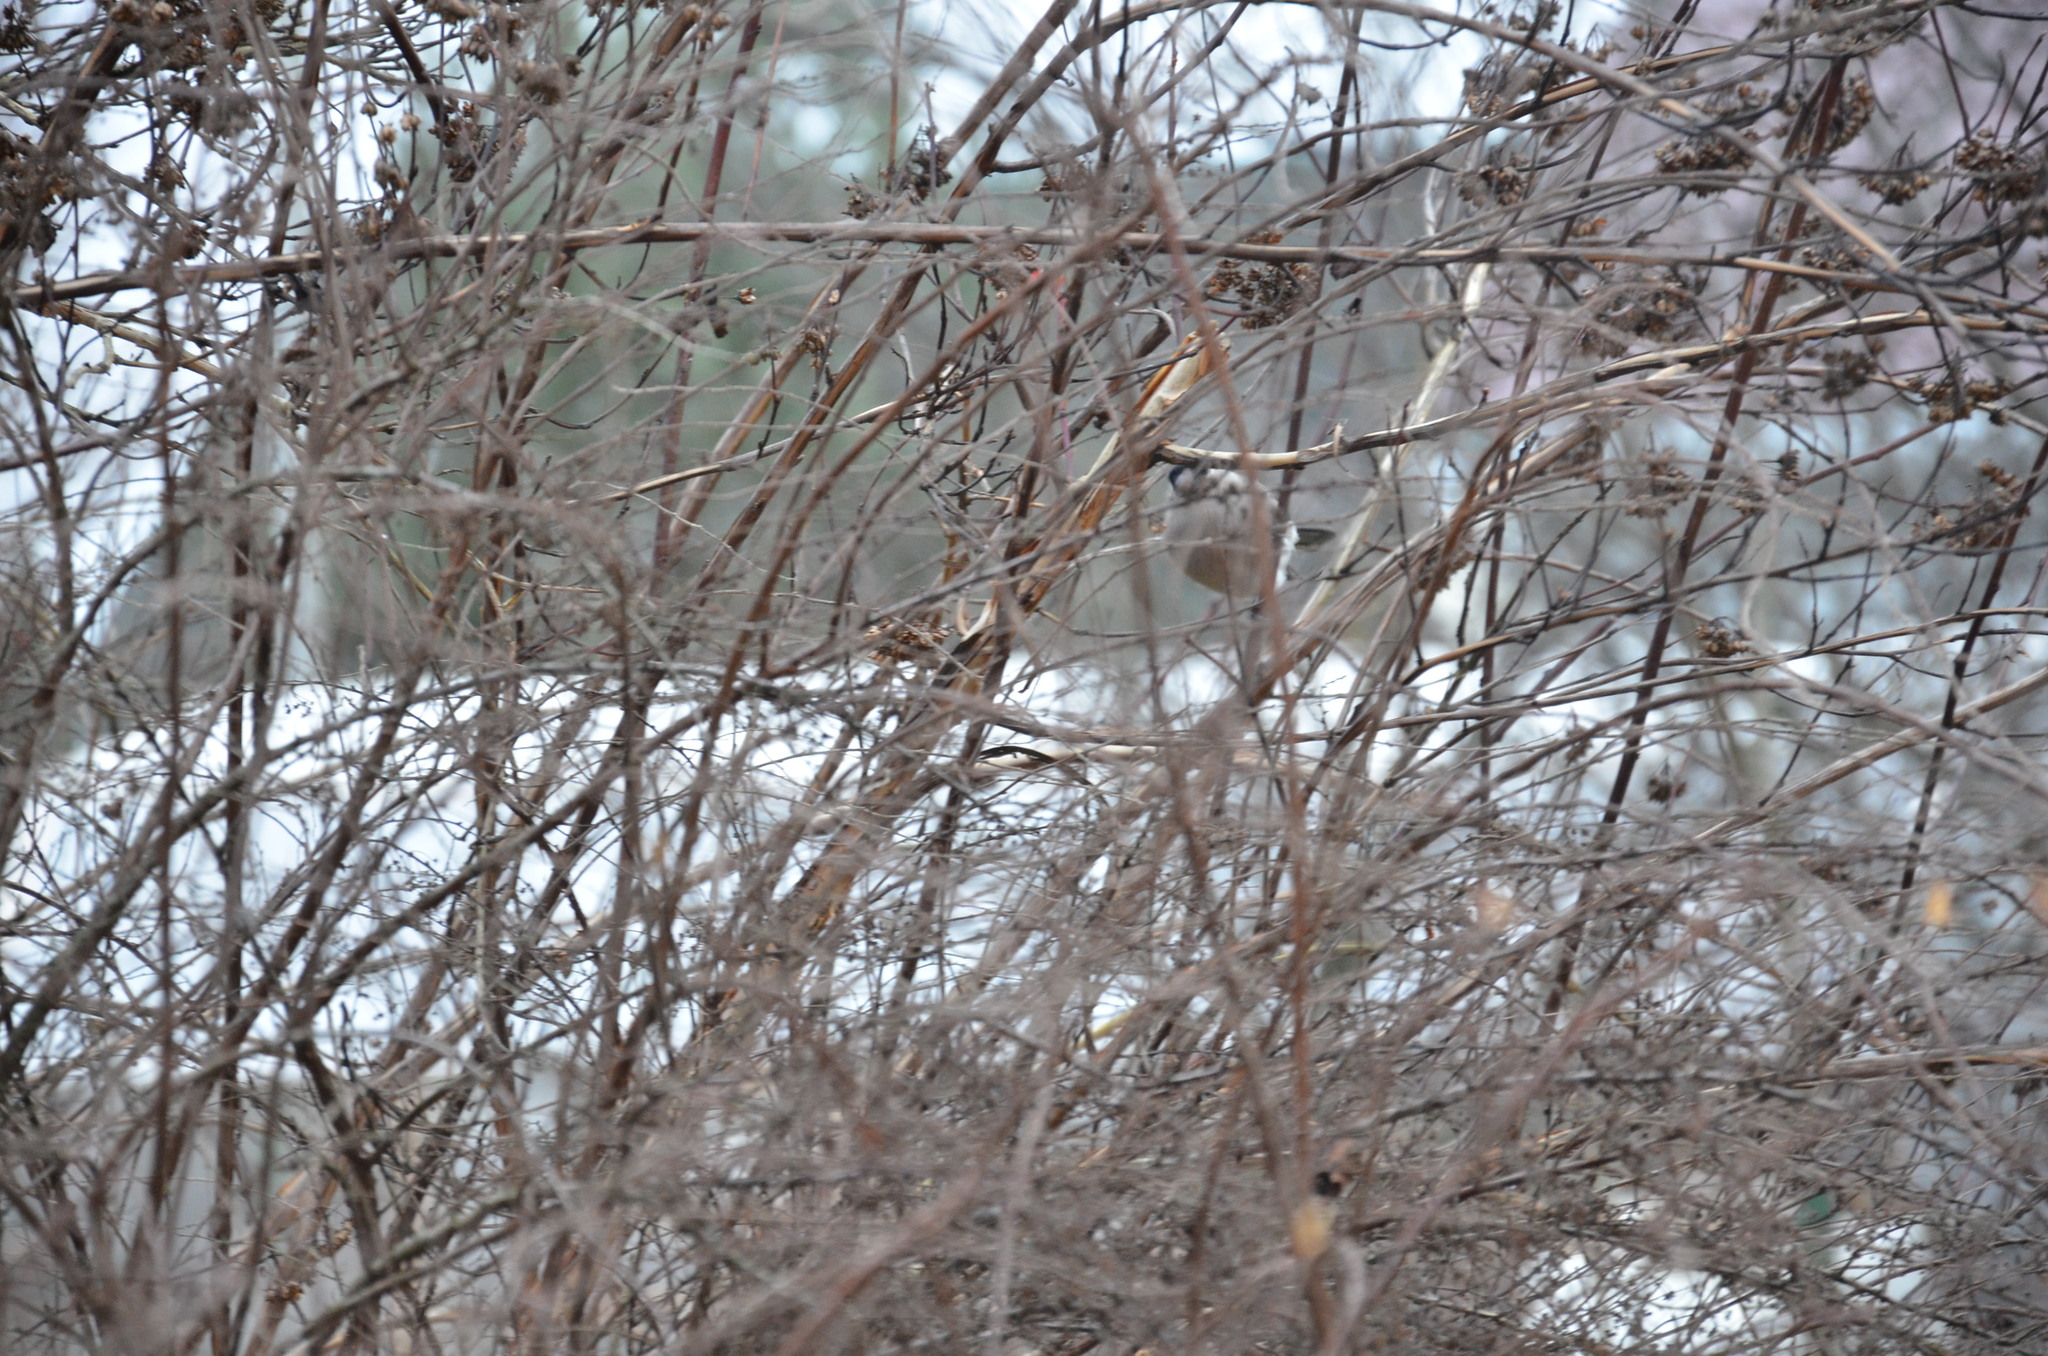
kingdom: Animalia
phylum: Chordata
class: Aves
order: Passeriformes
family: Fringillidae
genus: Pyrrhula
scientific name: Pyrrhula pyrrhula
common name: Eurasian bullfinch
